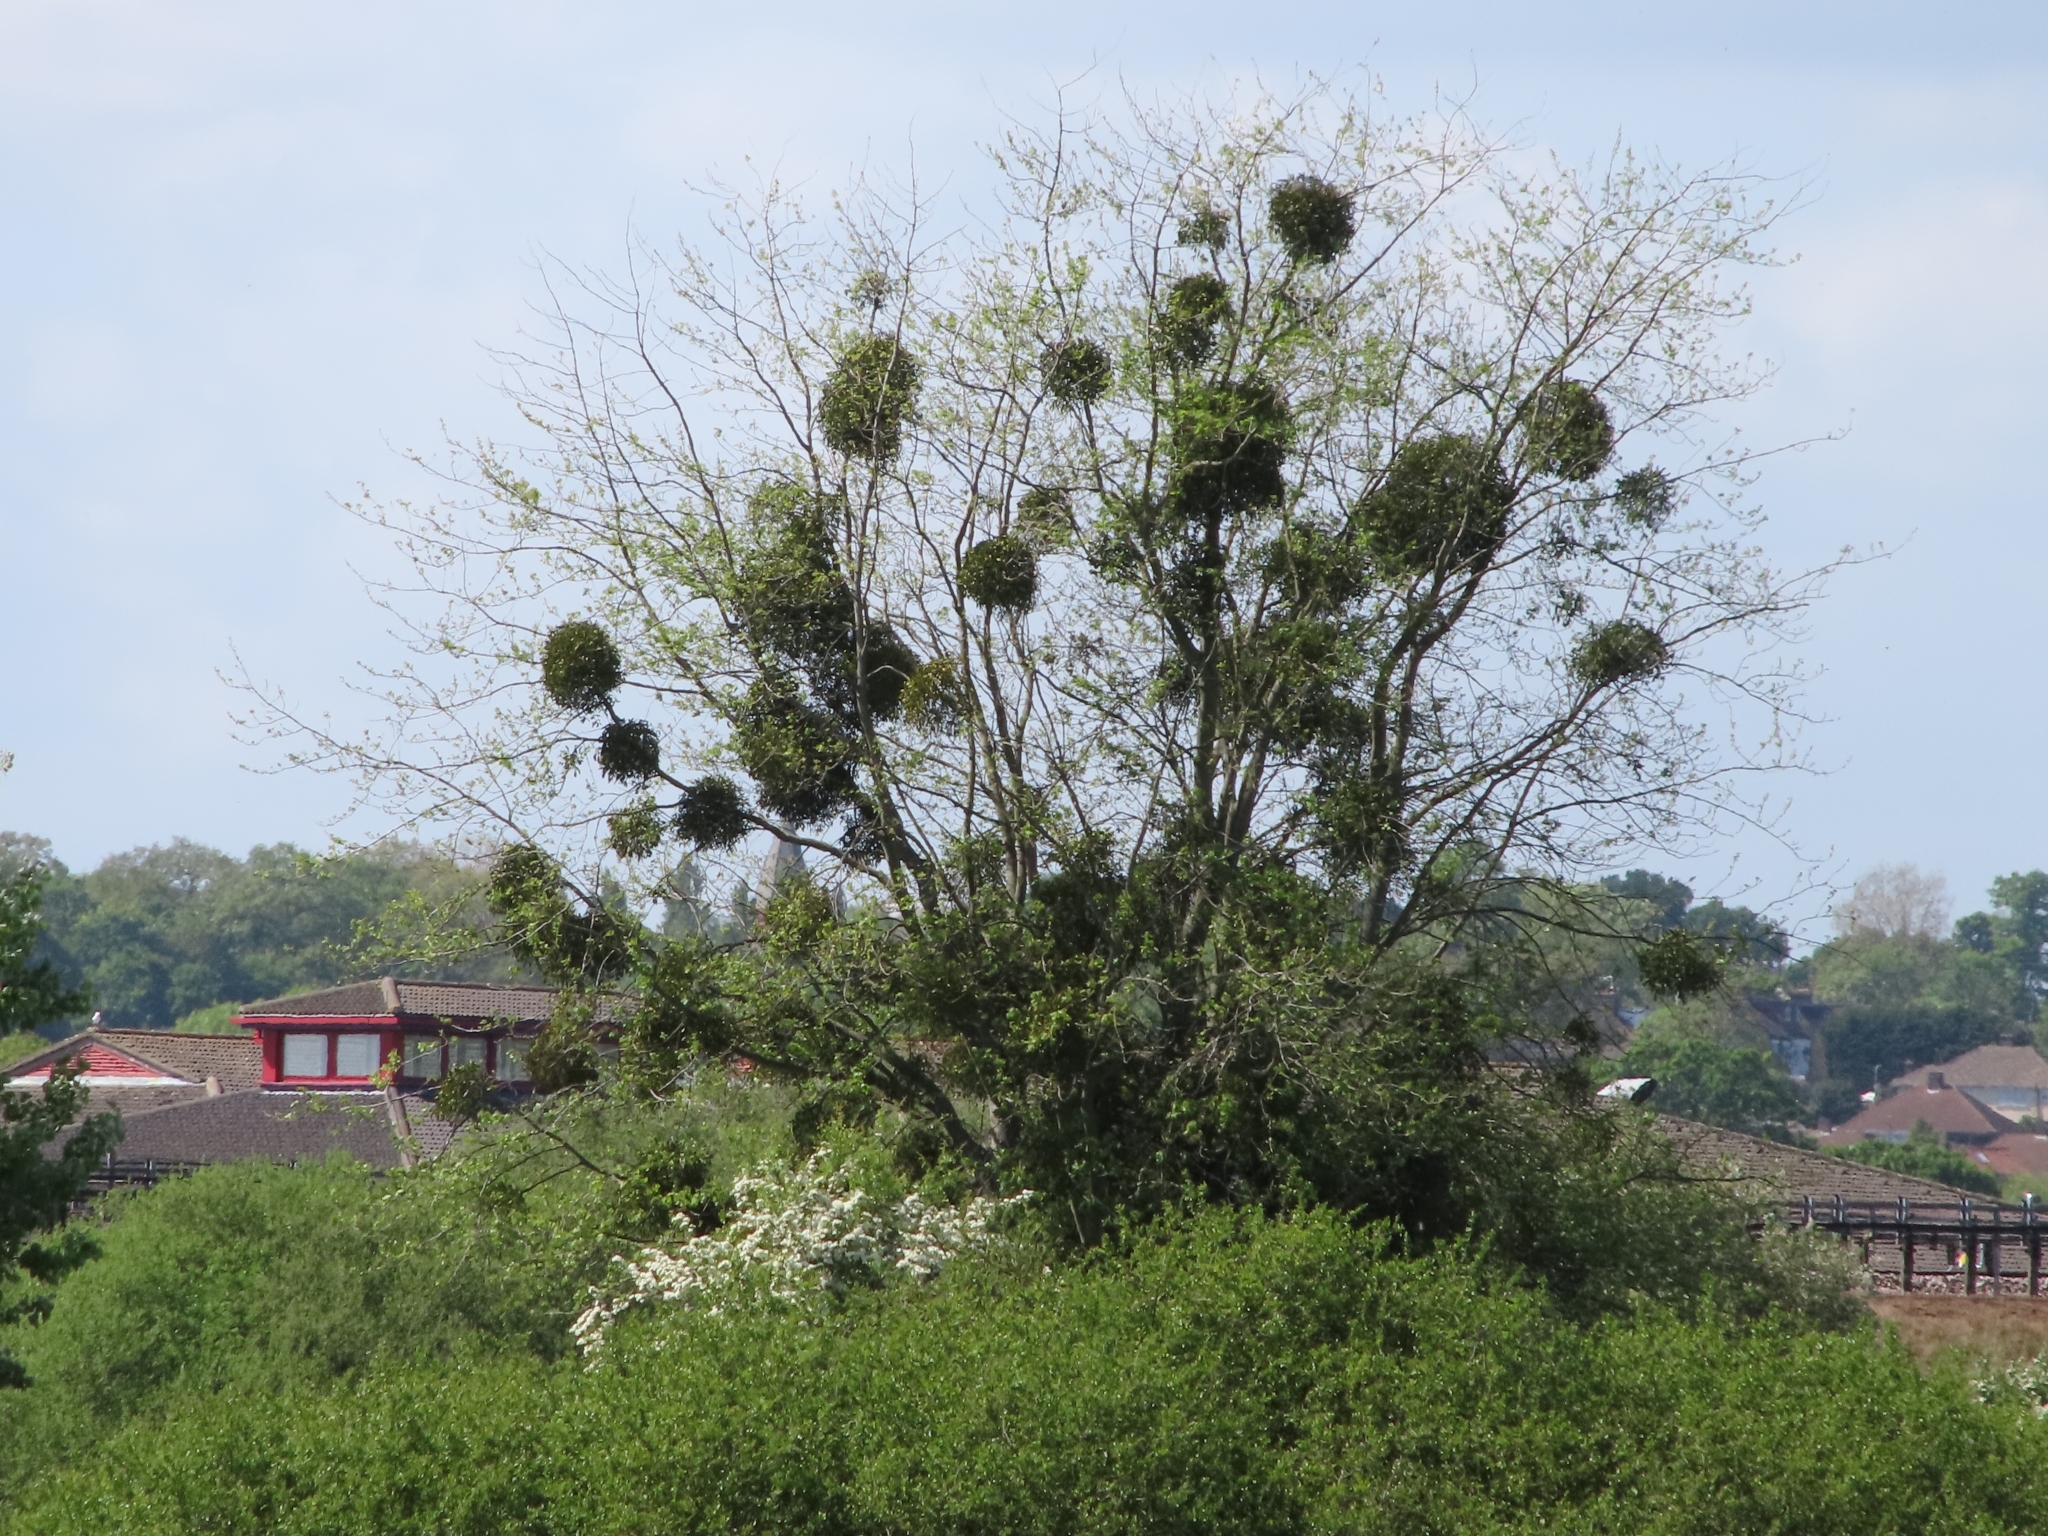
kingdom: Plantae
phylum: Tracheophyta
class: Magnoliopsida
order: Santalales
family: Viscaceae
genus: Viscum
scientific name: Viscum album
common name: Mistletoe
